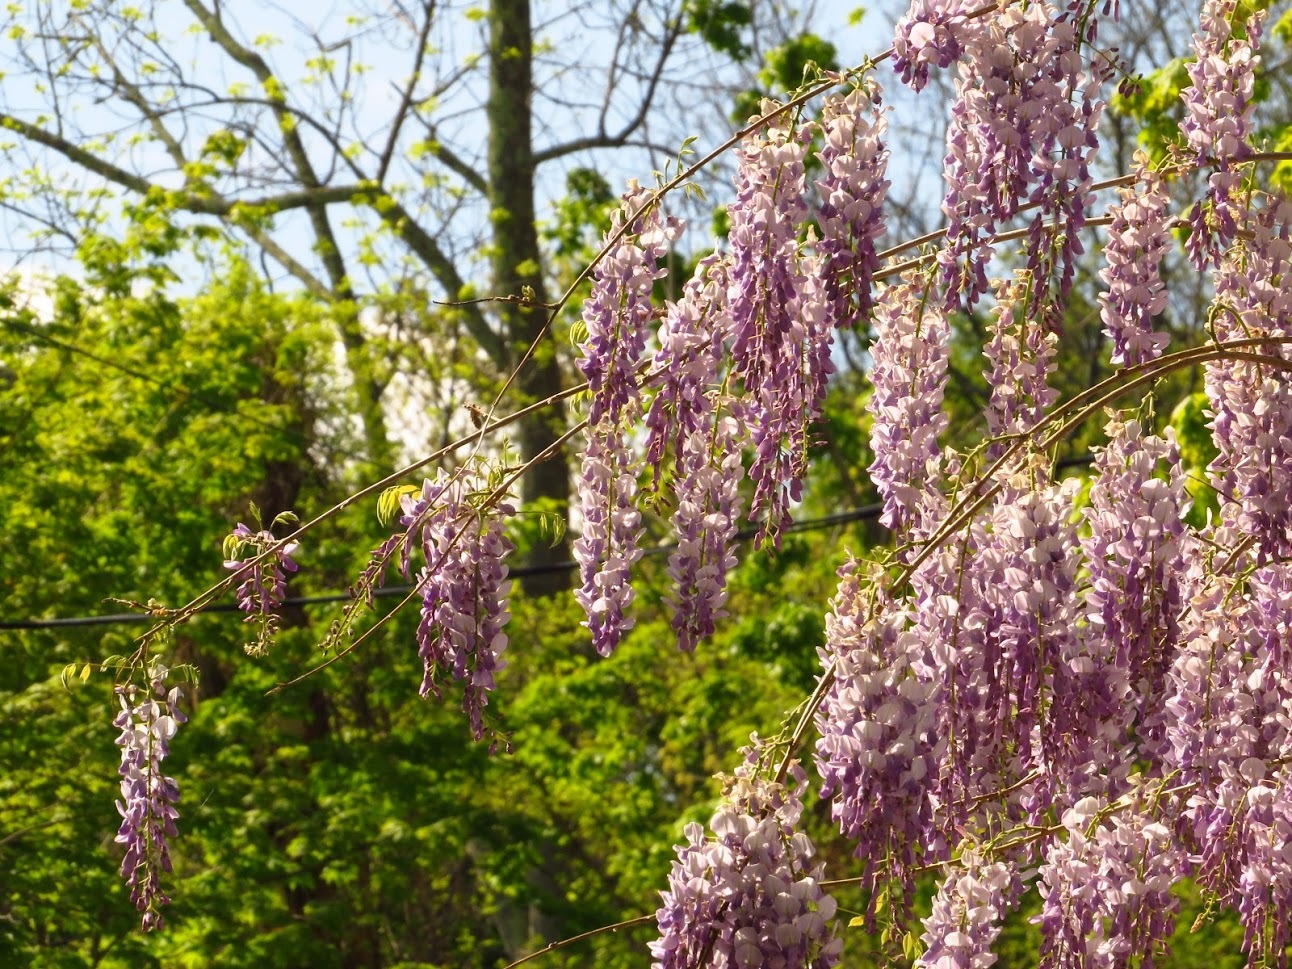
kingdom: Plantae
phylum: Tracheophyta
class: Magnoliopsida
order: Fabales
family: Fabaceae
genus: Wisteria
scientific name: Wisteria sinensis
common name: Chinese wisteria
